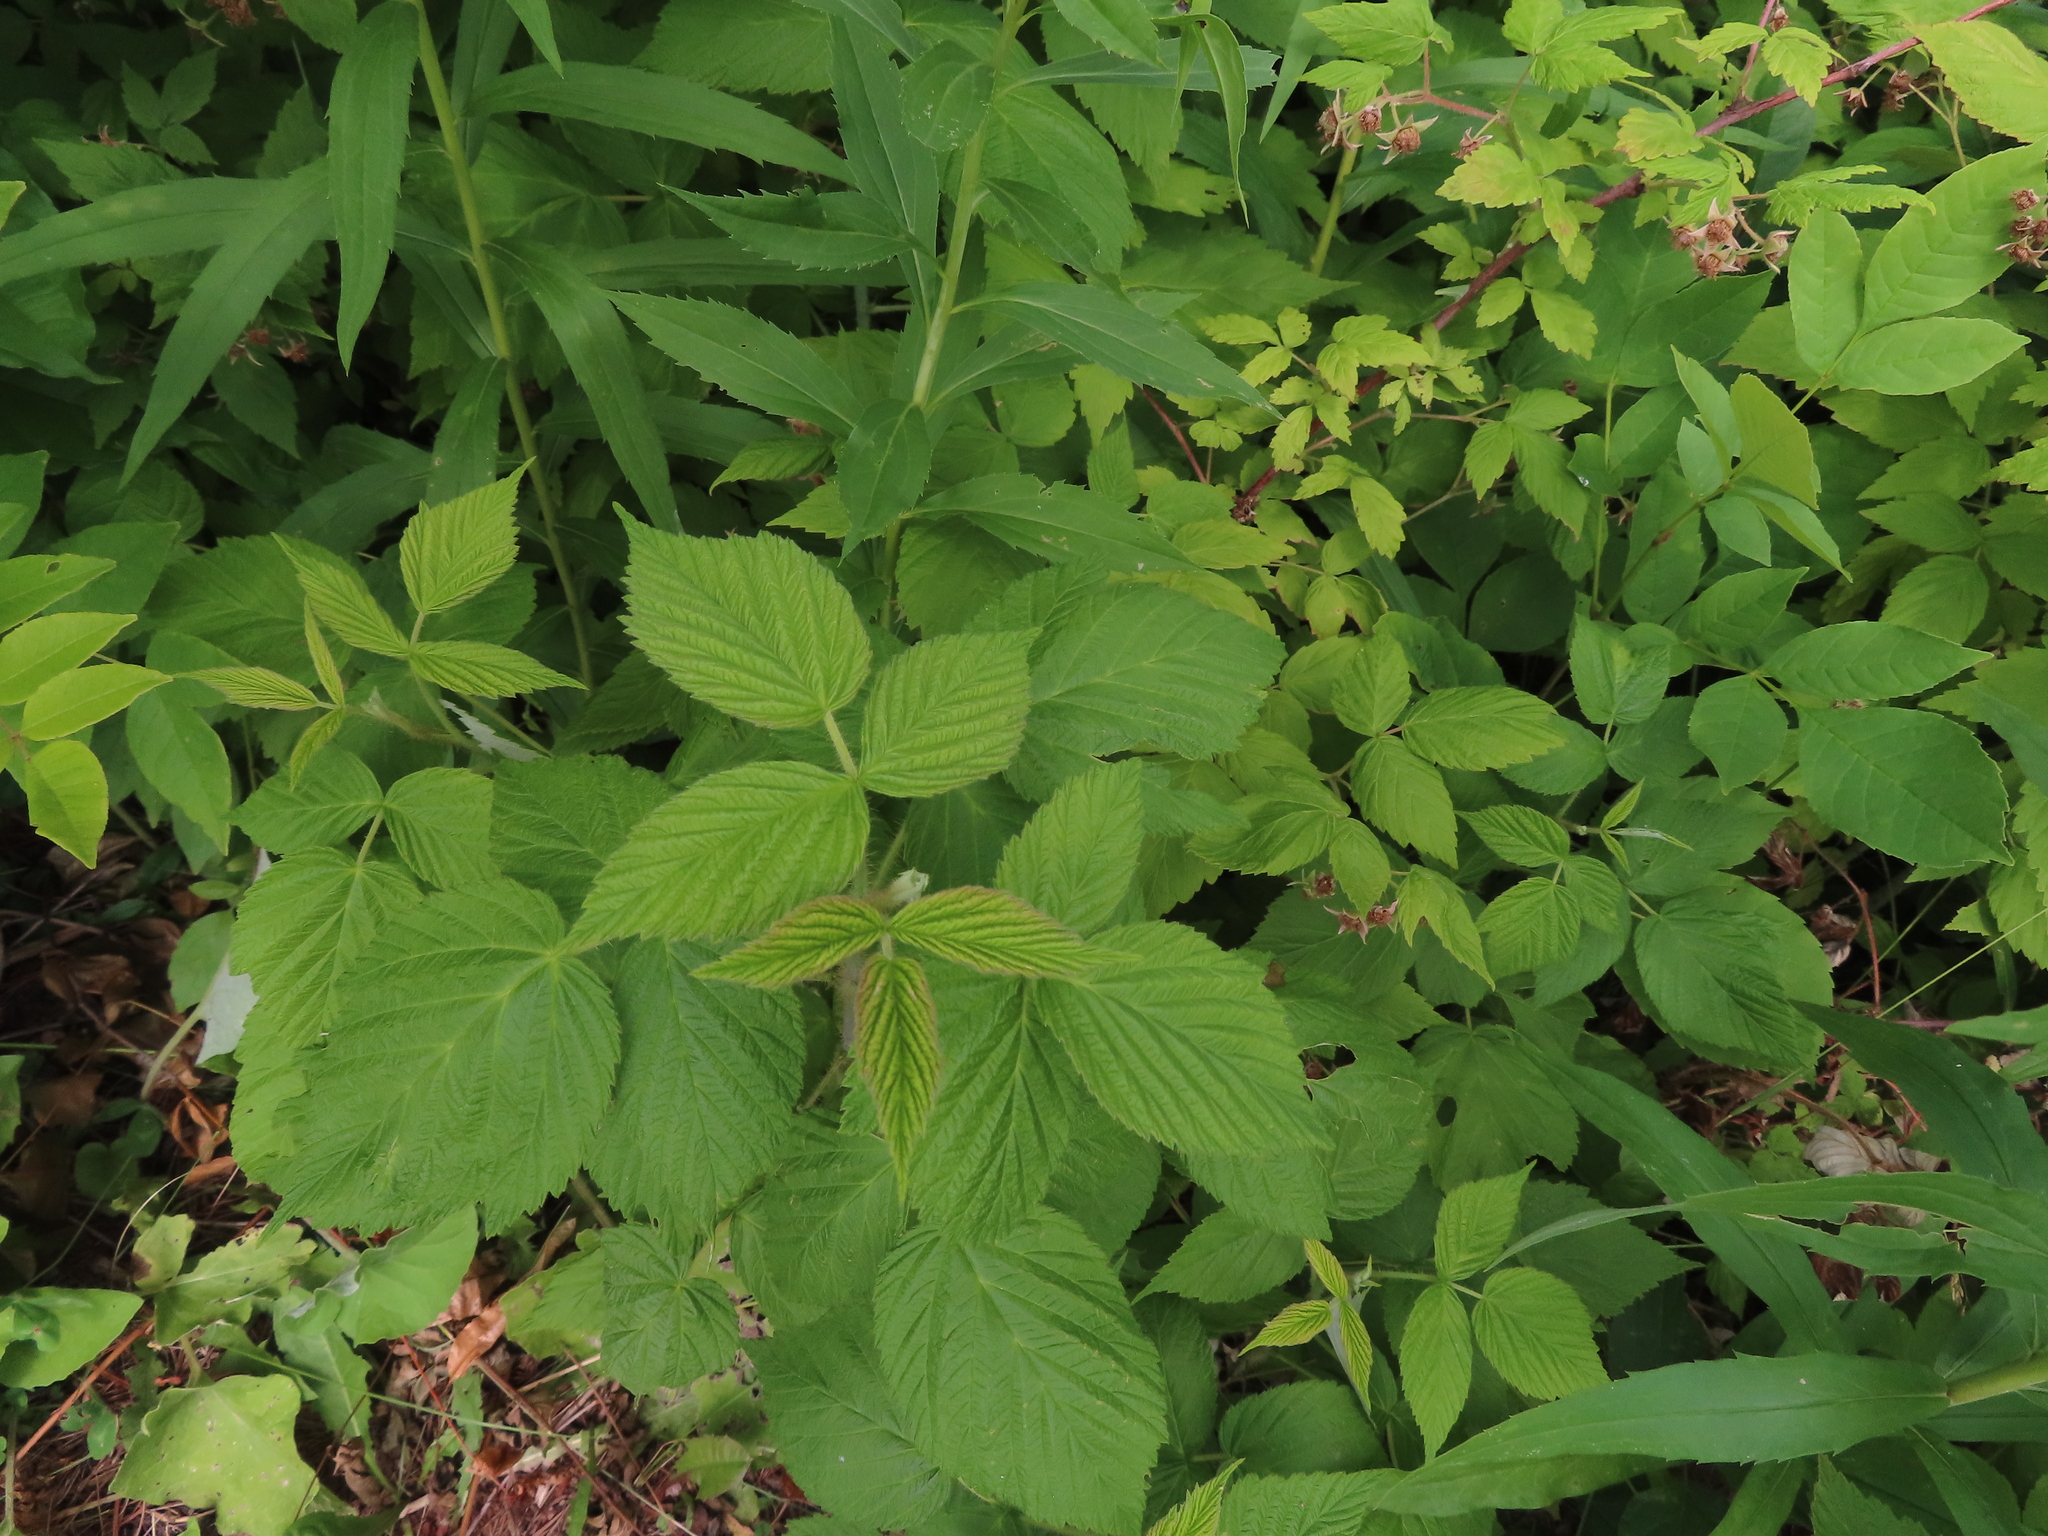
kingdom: Plantae
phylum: Tracheophyta
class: Magnoliopsida
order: Rosales
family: Rosaceae
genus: Rubus
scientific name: Rubus occidentalis
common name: Black raspberry
